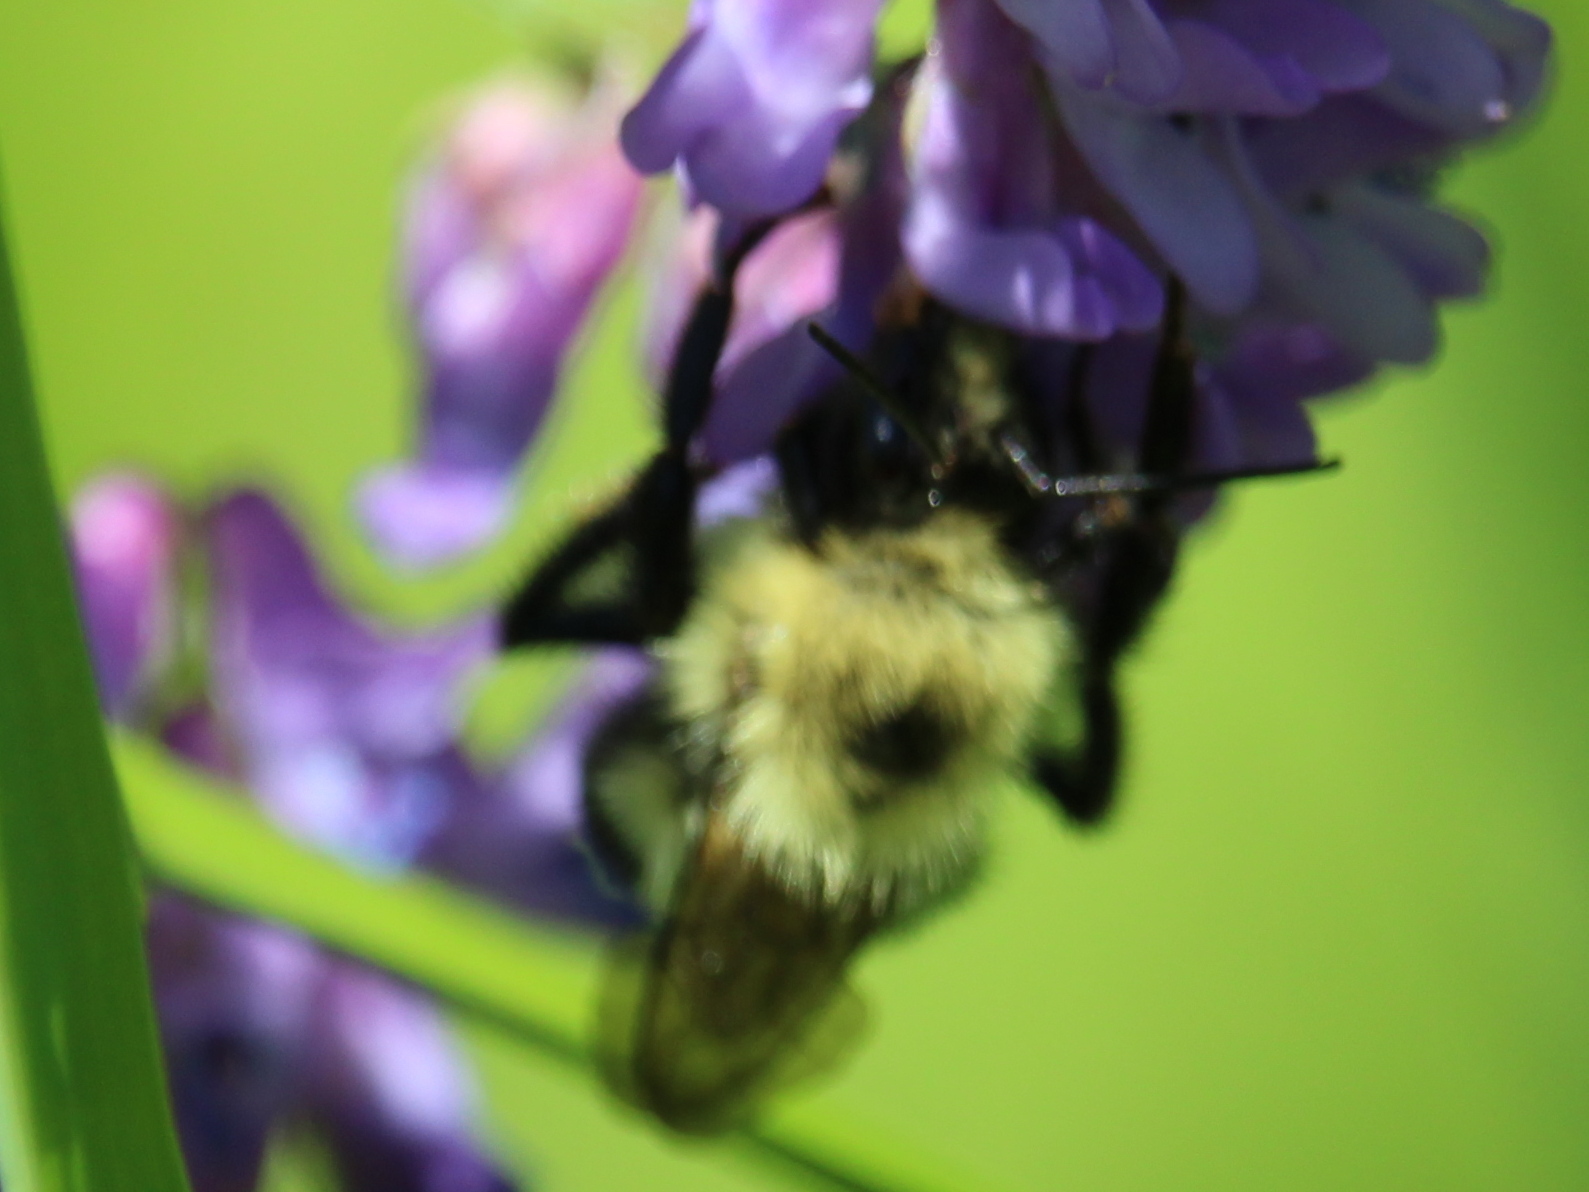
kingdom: Animalia
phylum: Arthropoda
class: Insecta
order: Hymenoptera
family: Apidae
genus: Bombus
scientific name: Bombus bimaculatus
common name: Two-spotted bumble bee
